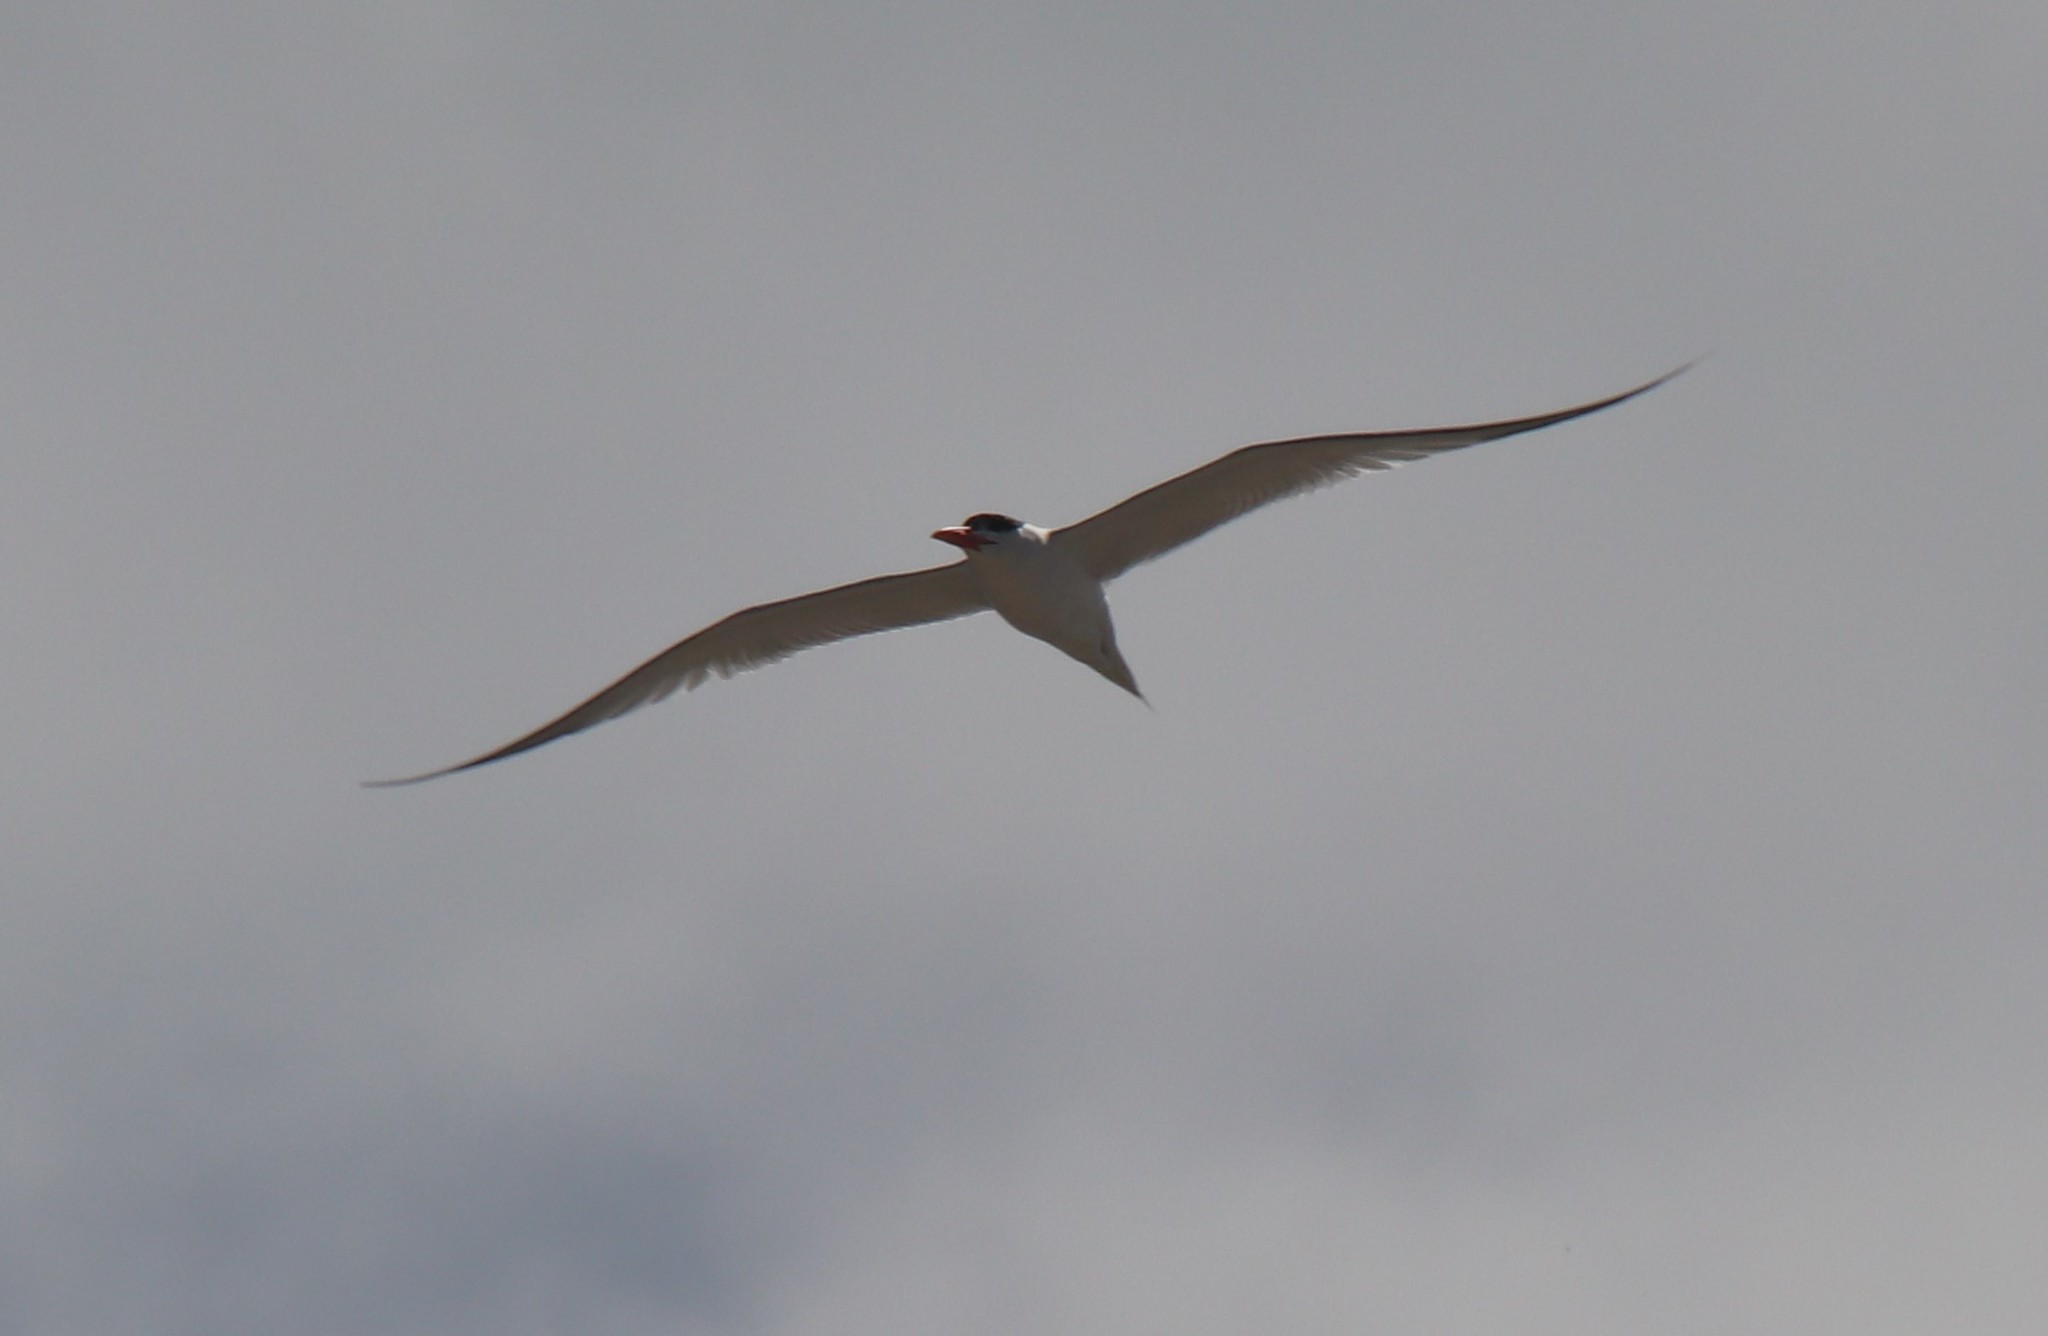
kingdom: Animalia
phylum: Chordata
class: Aves
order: Charadriiformes
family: Laridae
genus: Thalasseus
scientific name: Thalasseus maximus
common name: Royal tern
